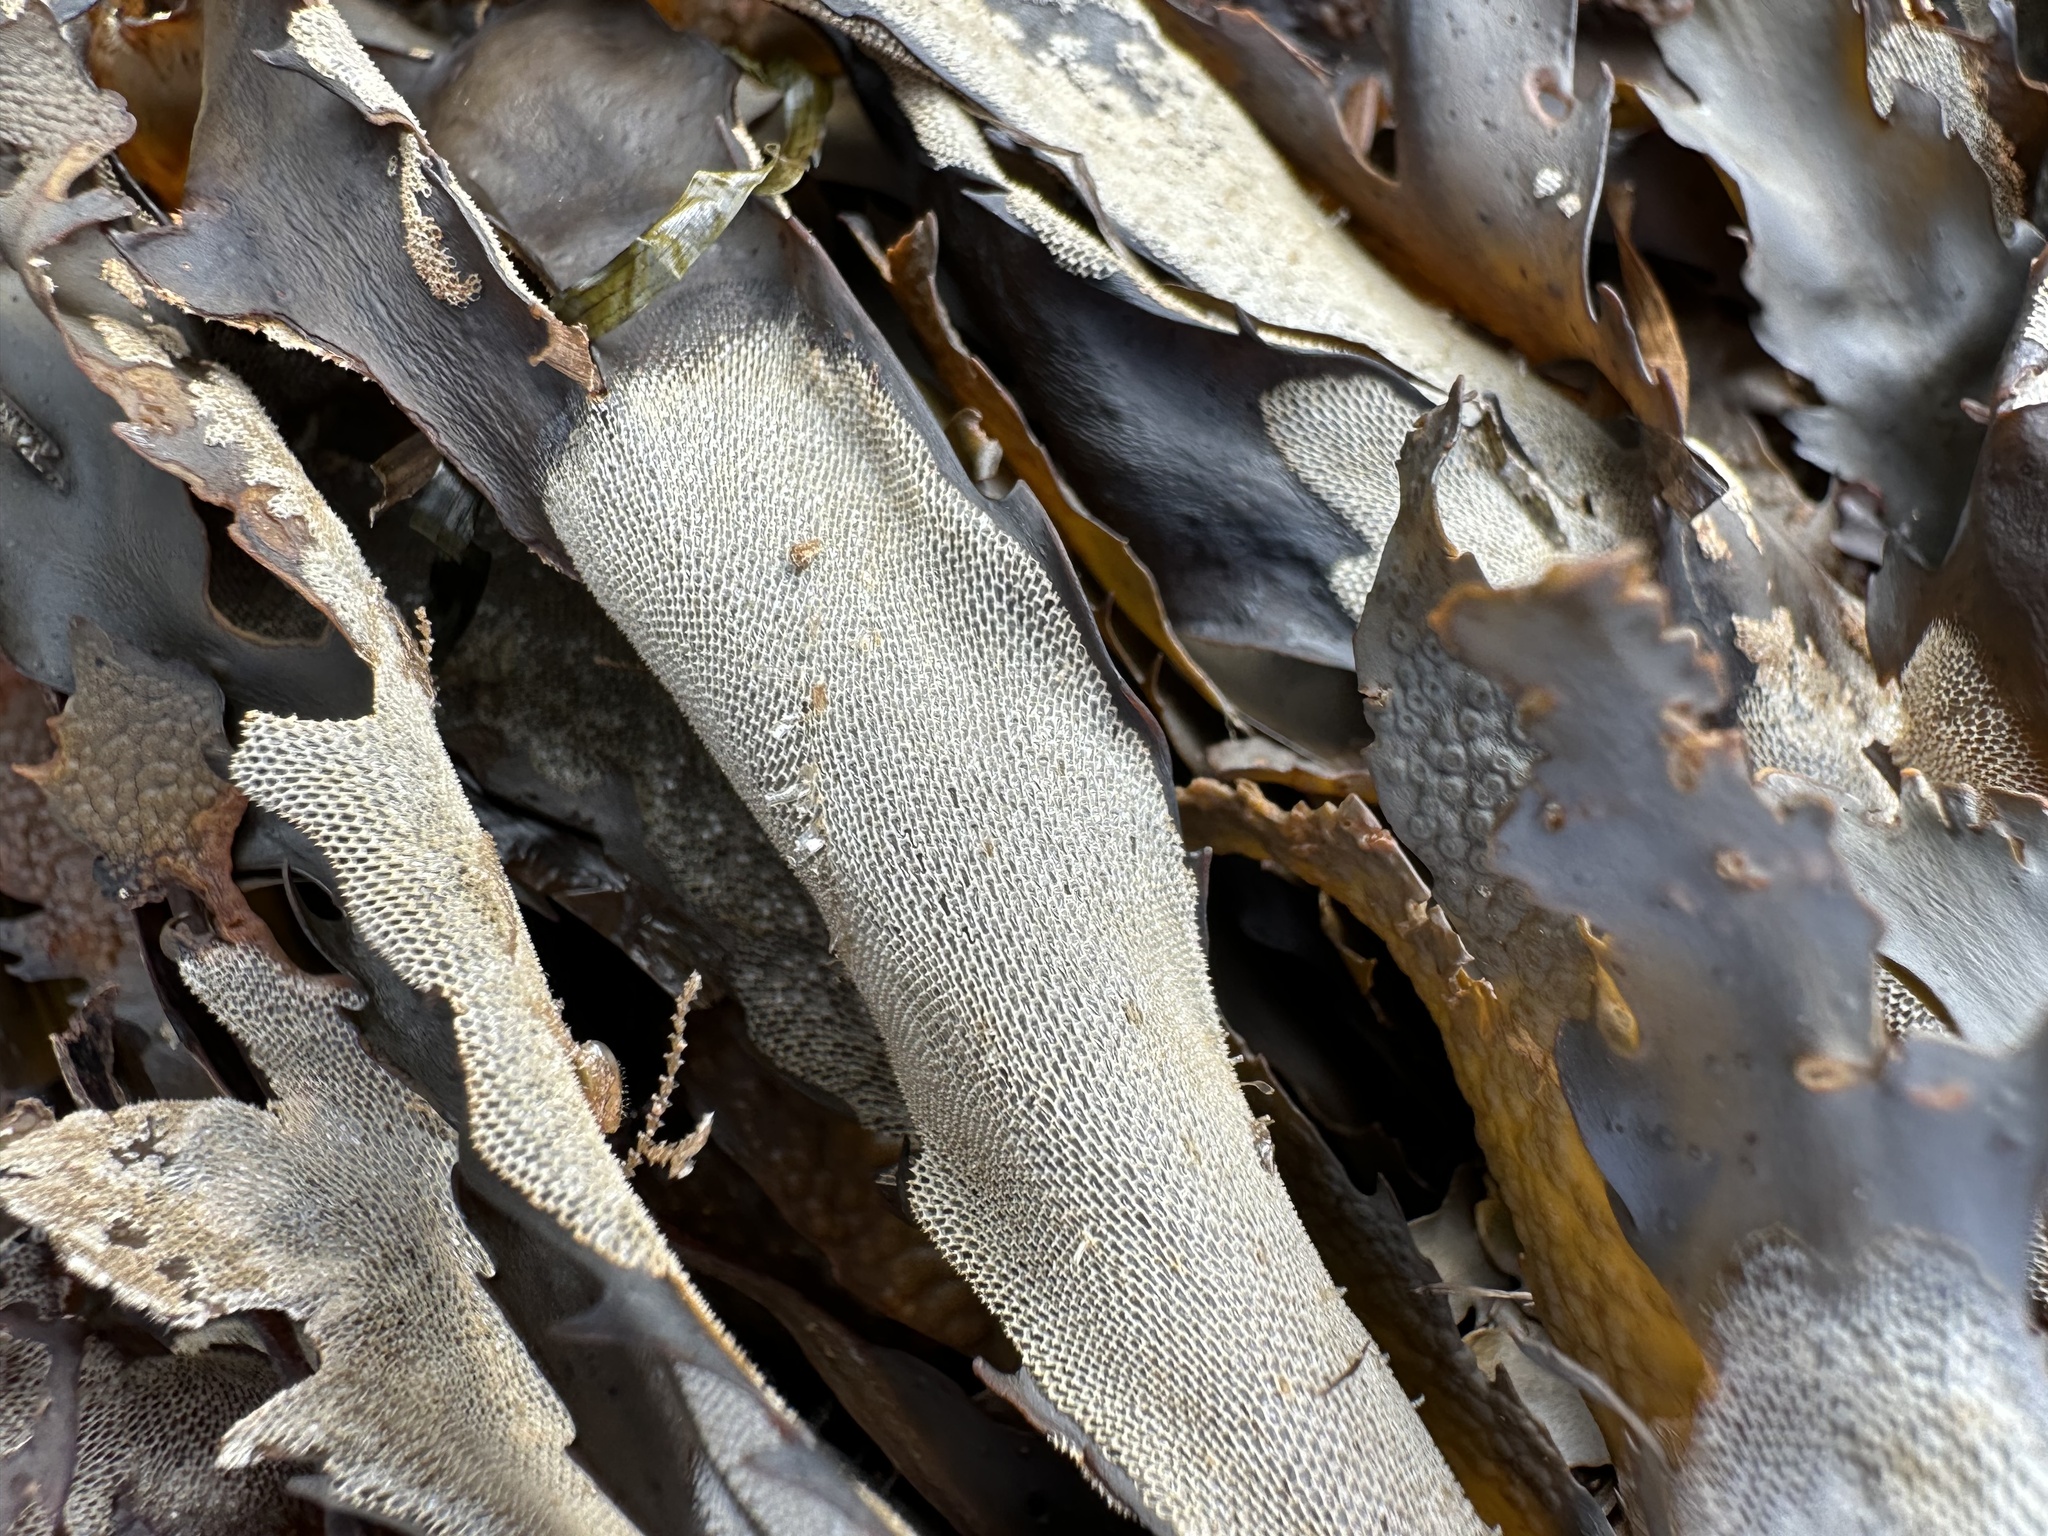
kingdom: Animalia
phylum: Bryozoa
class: Gymnolaemata
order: Cheilostomatida
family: Membraniporidae
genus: Membranipora
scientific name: Membranipora membranacea
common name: Sea mat
